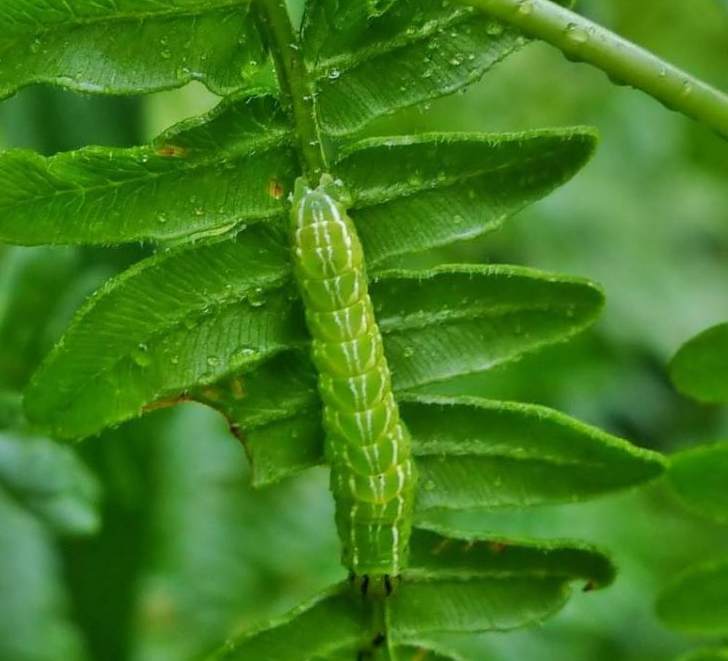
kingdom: Animalia
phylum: Arthropoda
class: Insecta
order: Lepidoptera
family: Noctuidae
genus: Callopistria
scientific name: Callopistria cordata
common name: Silver-spotted fern moth
